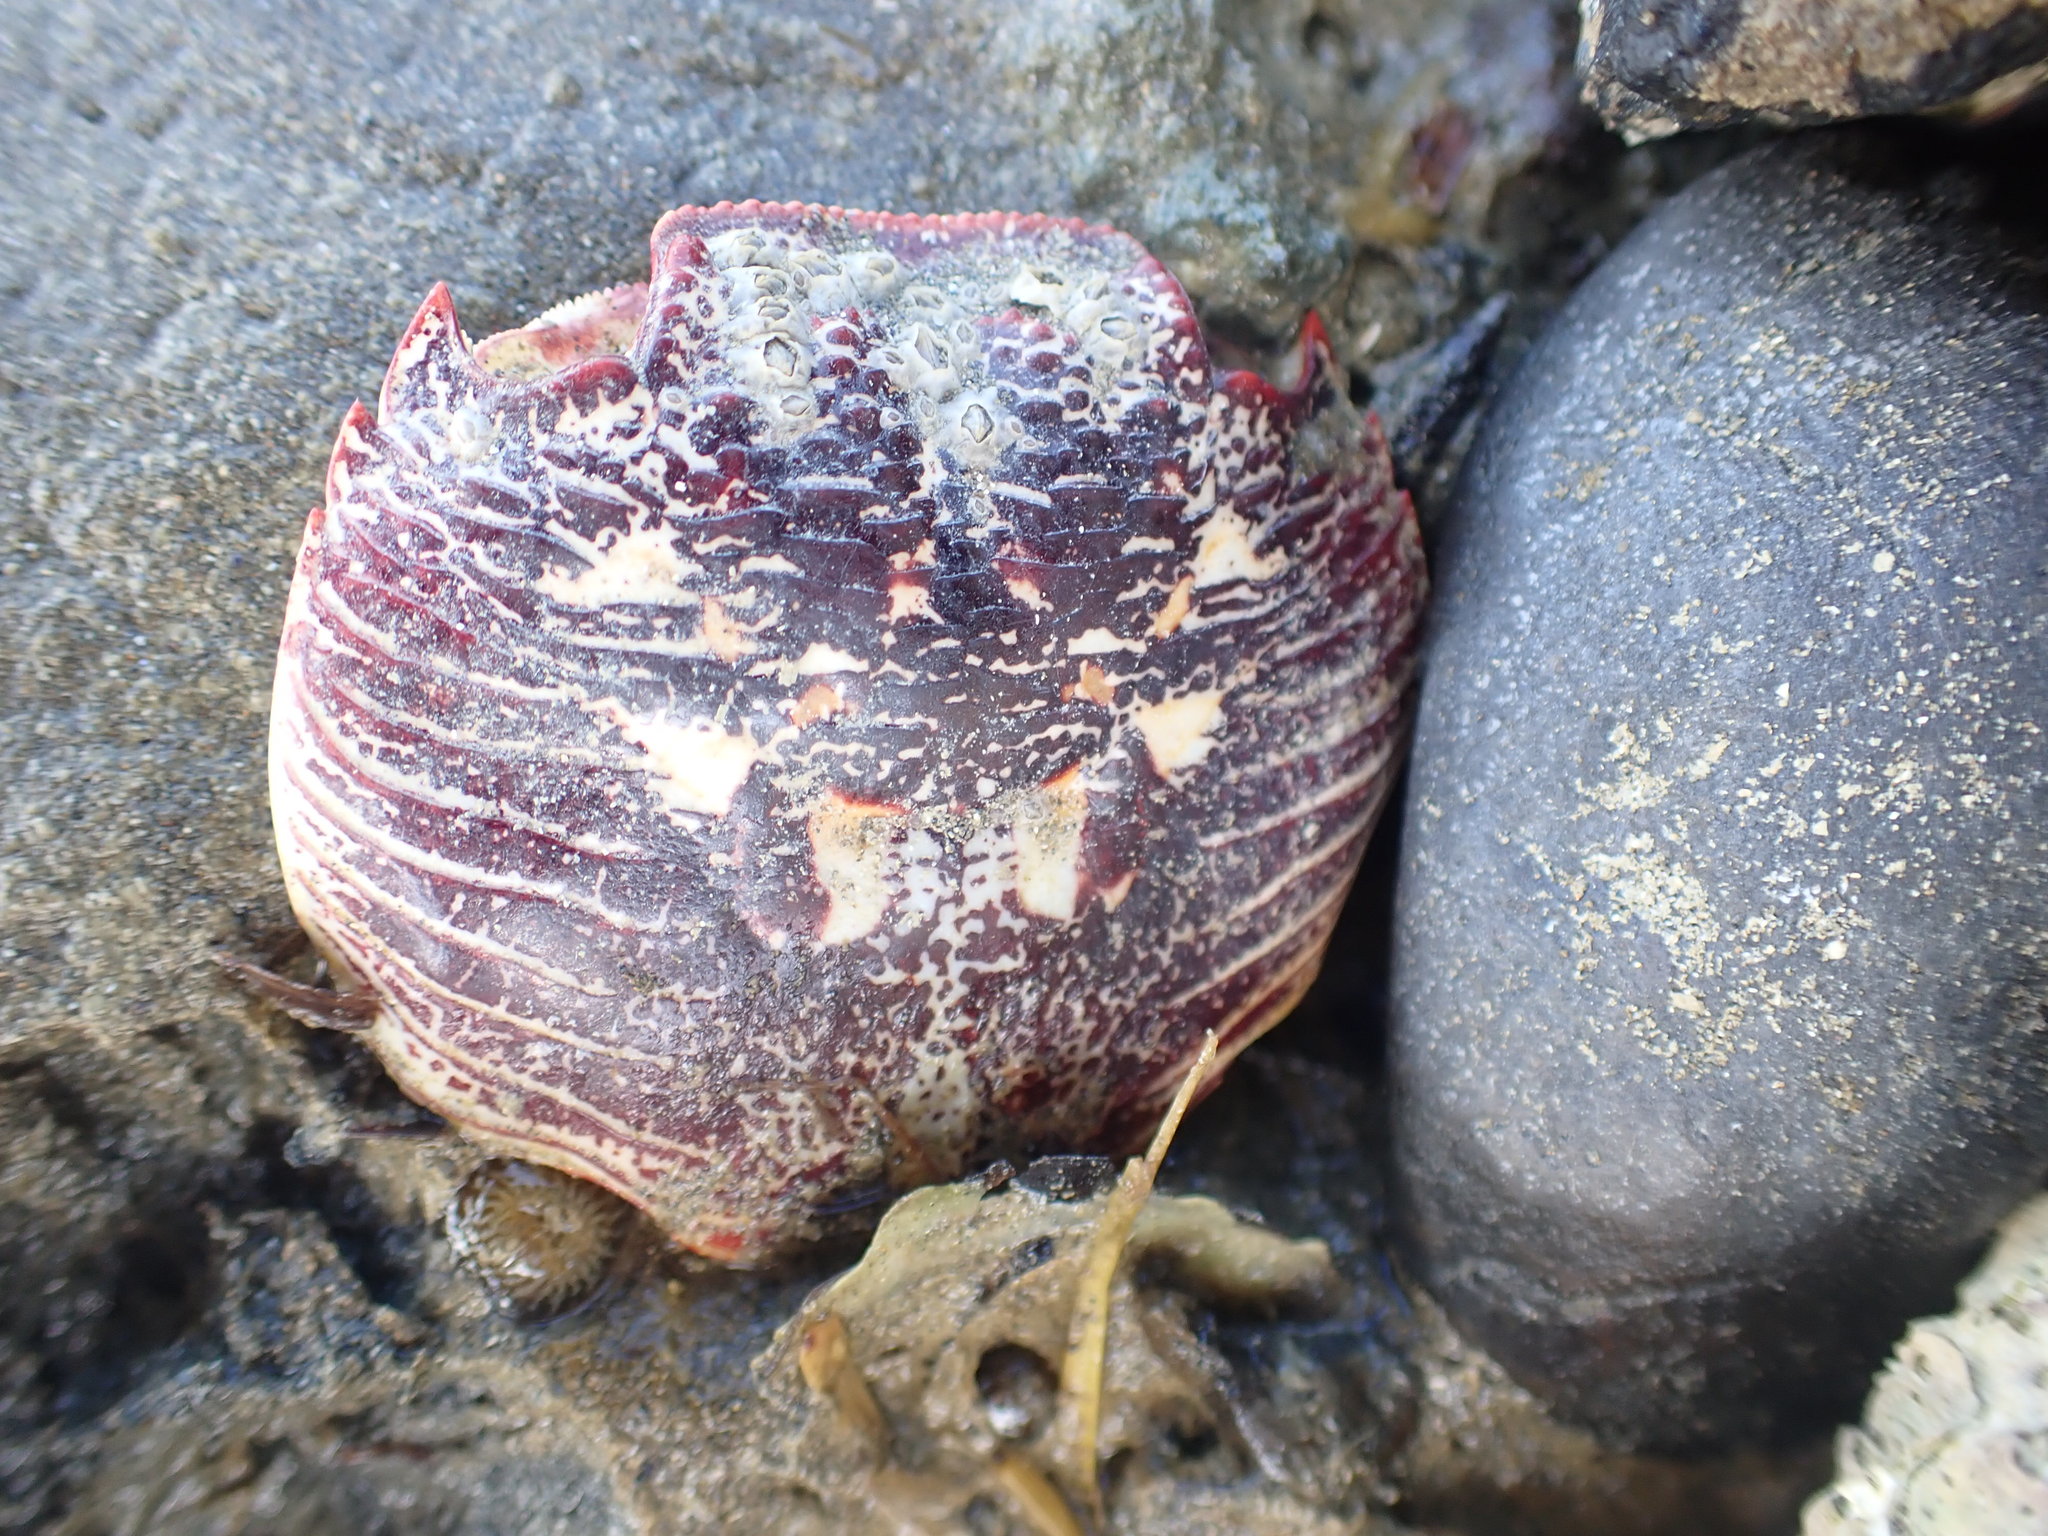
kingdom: Animalia
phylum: Arthropoda
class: Malacostraca
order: Decapoda
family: Grapsidae
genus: Leptograpsus
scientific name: Leptograpsus variegatus
